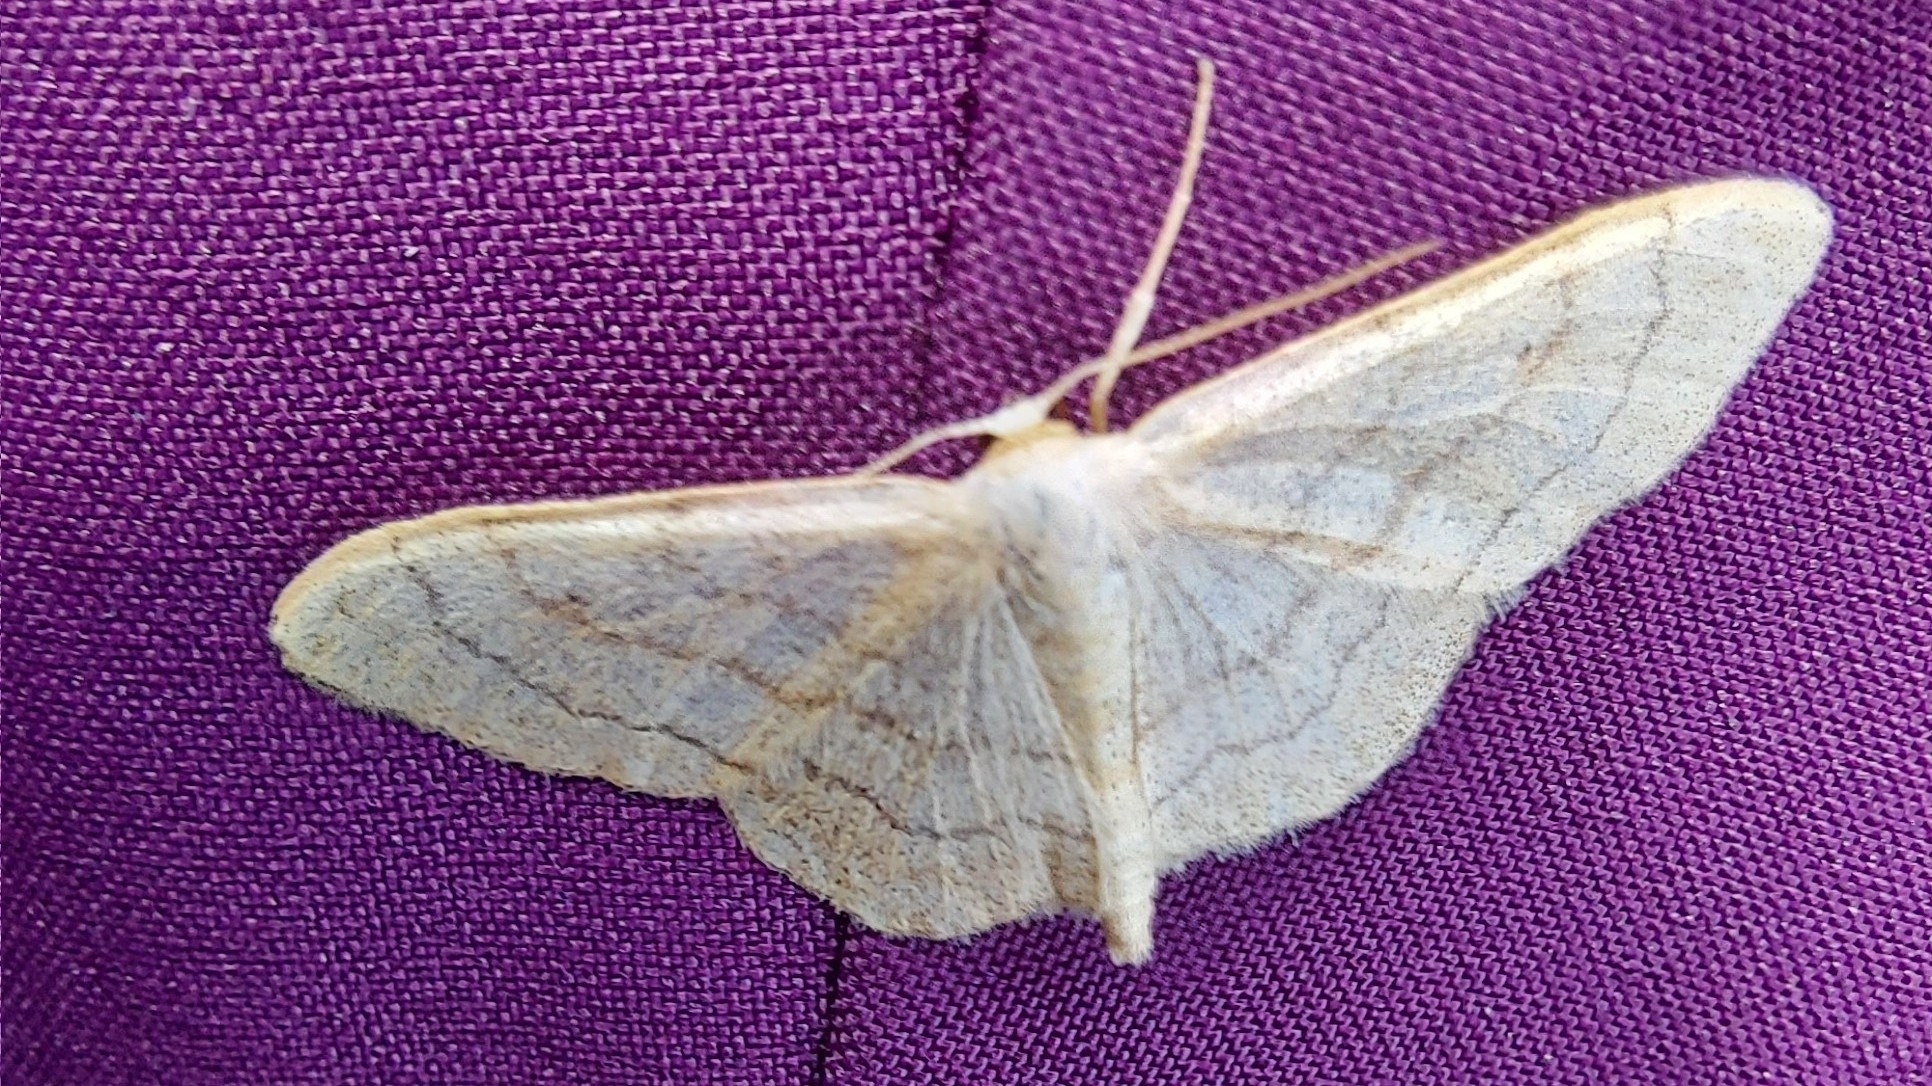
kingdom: Animalia
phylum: Arthropoda
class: Insecta
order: Lepidoptera
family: Geometridae
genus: Idaea
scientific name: Idaea aversata
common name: Riband wave
